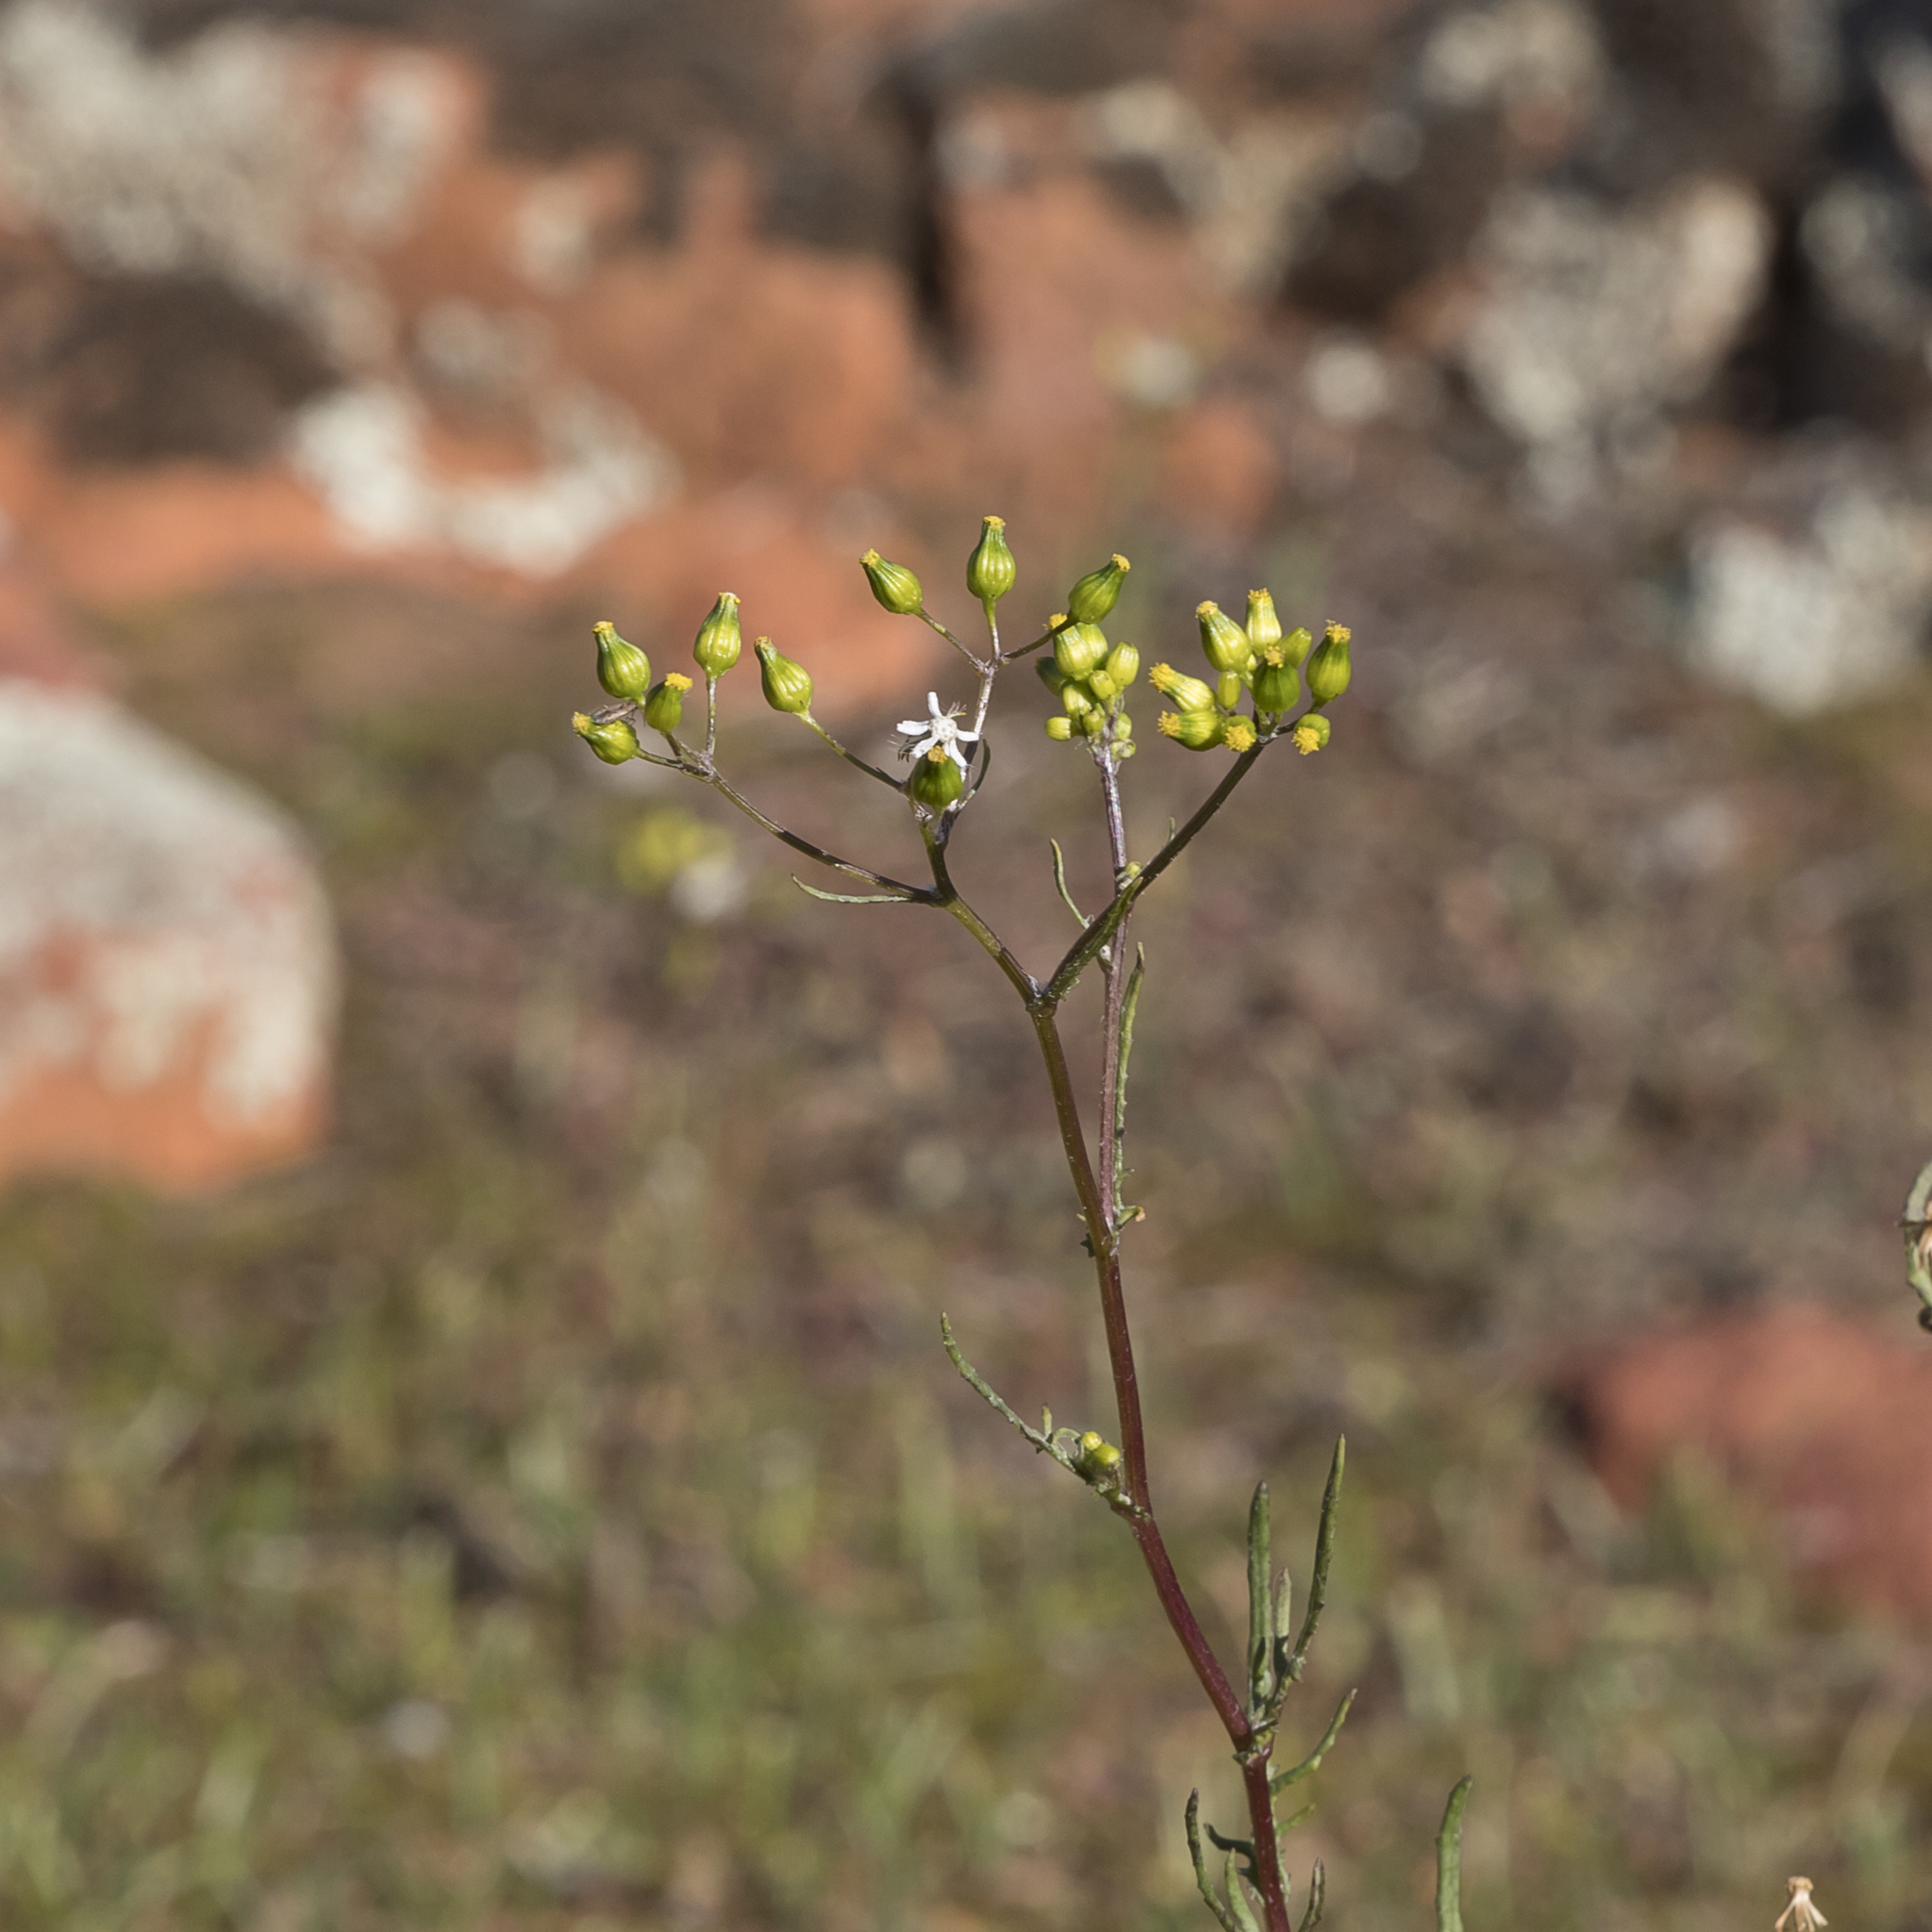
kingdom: Plantae
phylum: Tracheophyta
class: Magnoliopsida
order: Asterales
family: Asteraceae
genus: Senecio
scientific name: Senecio glossanthus
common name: Slender groundsel
